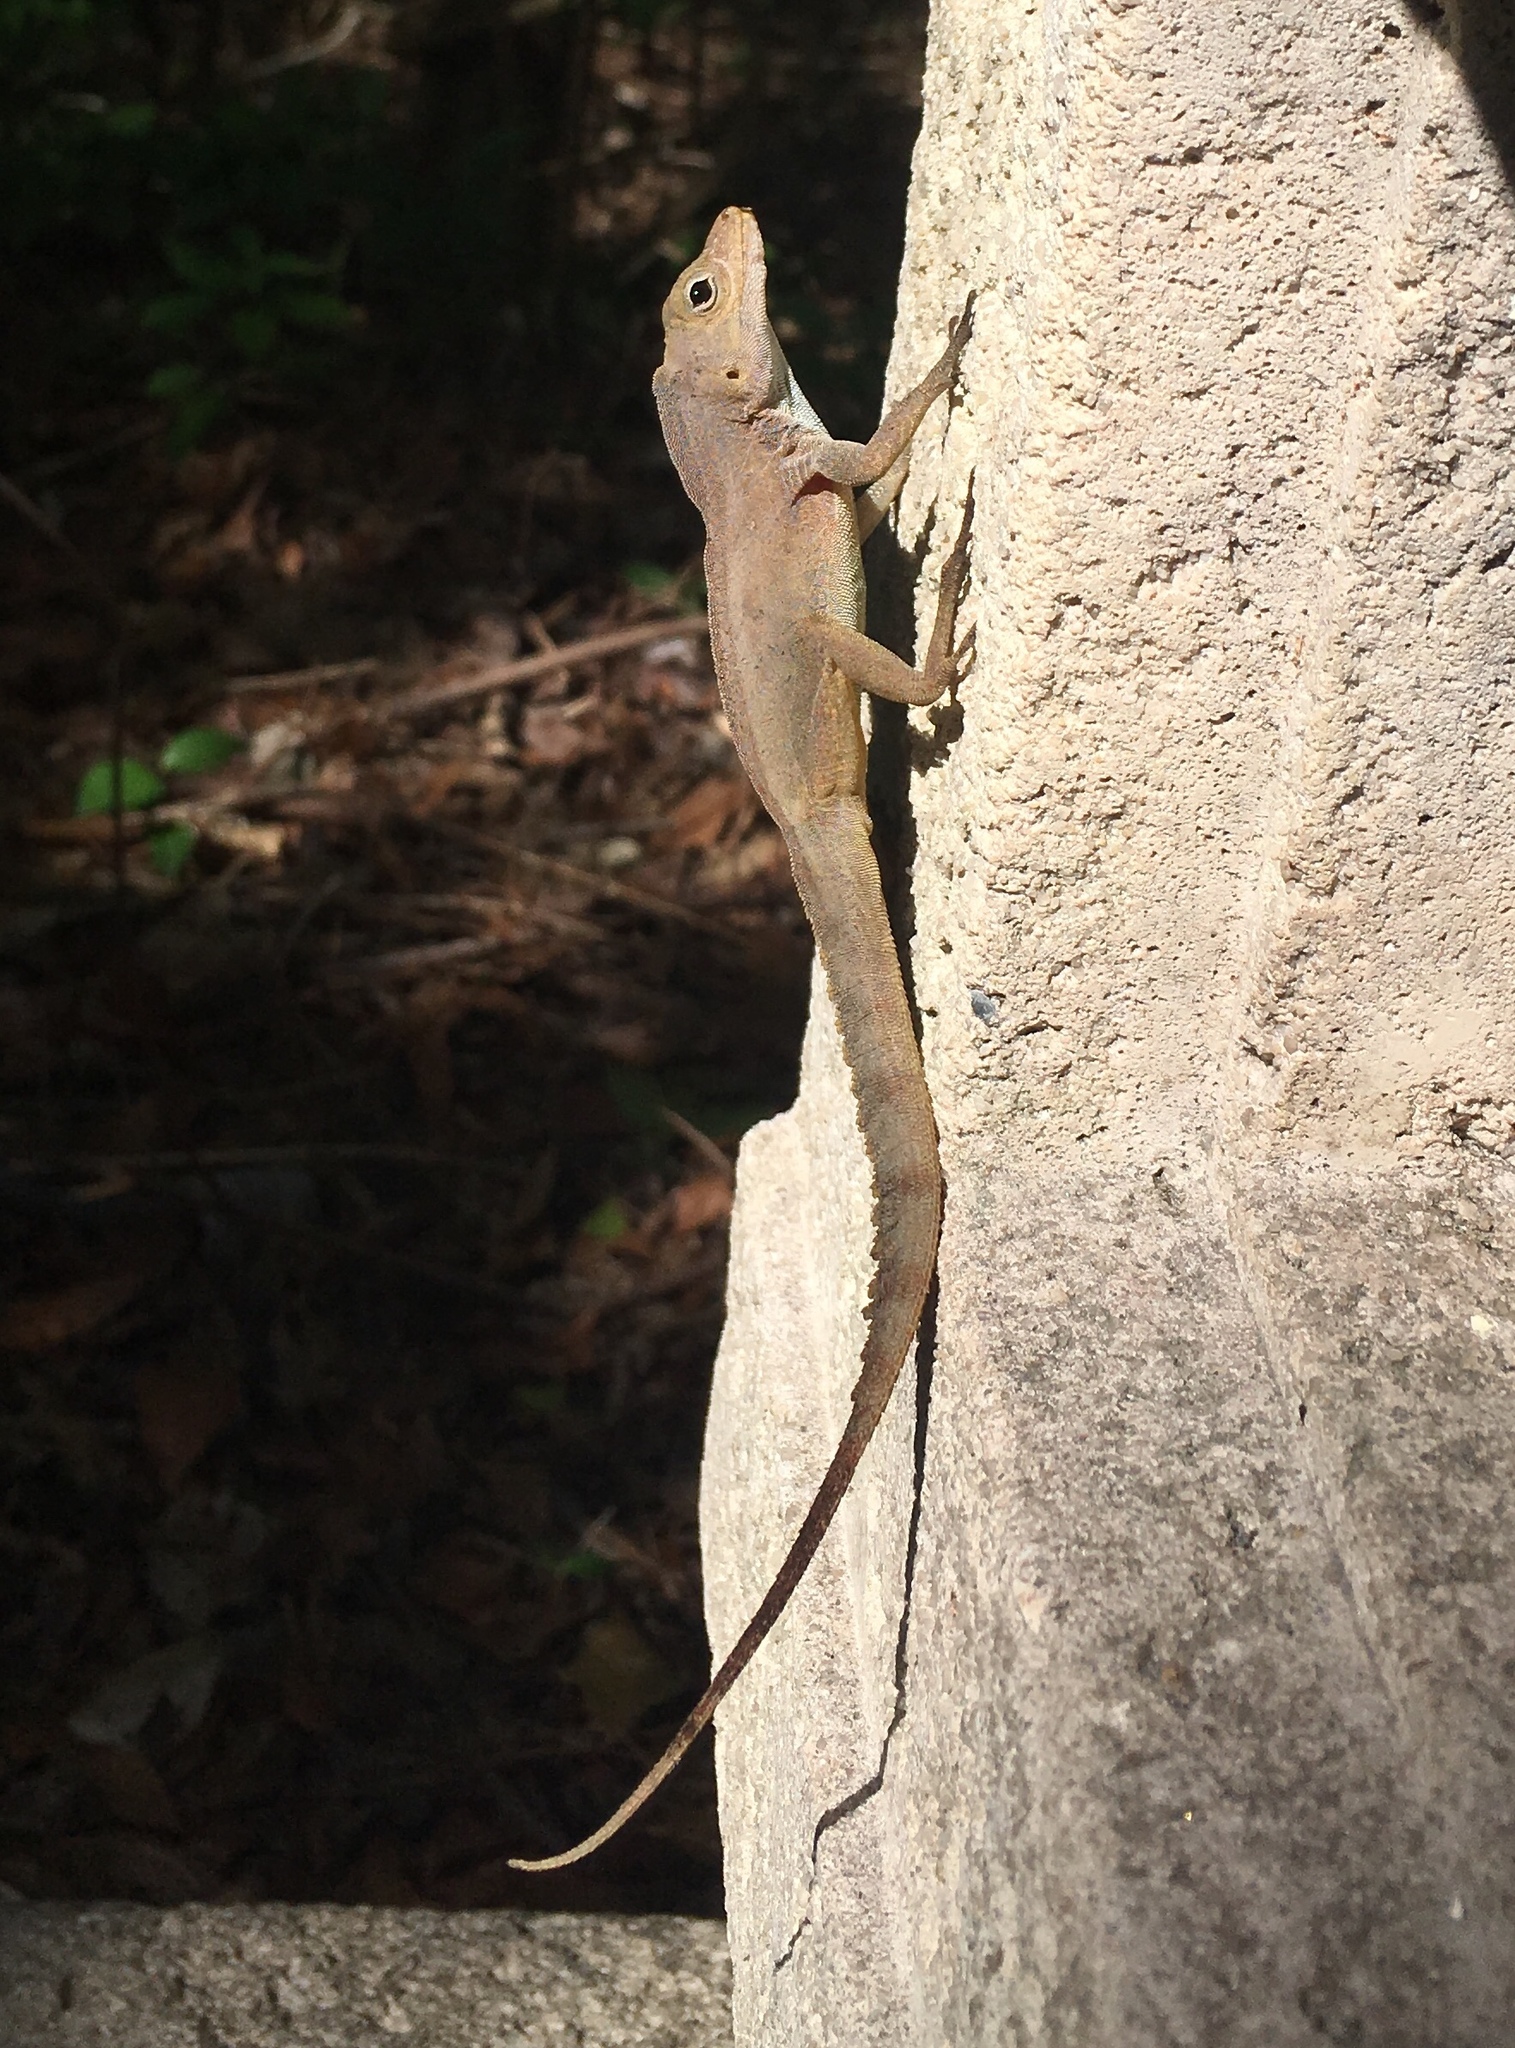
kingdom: Animalia
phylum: Chordata
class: Squamata
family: Dactyloidae
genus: Anolis
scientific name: Anolis cristatellus
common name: Crested anole
